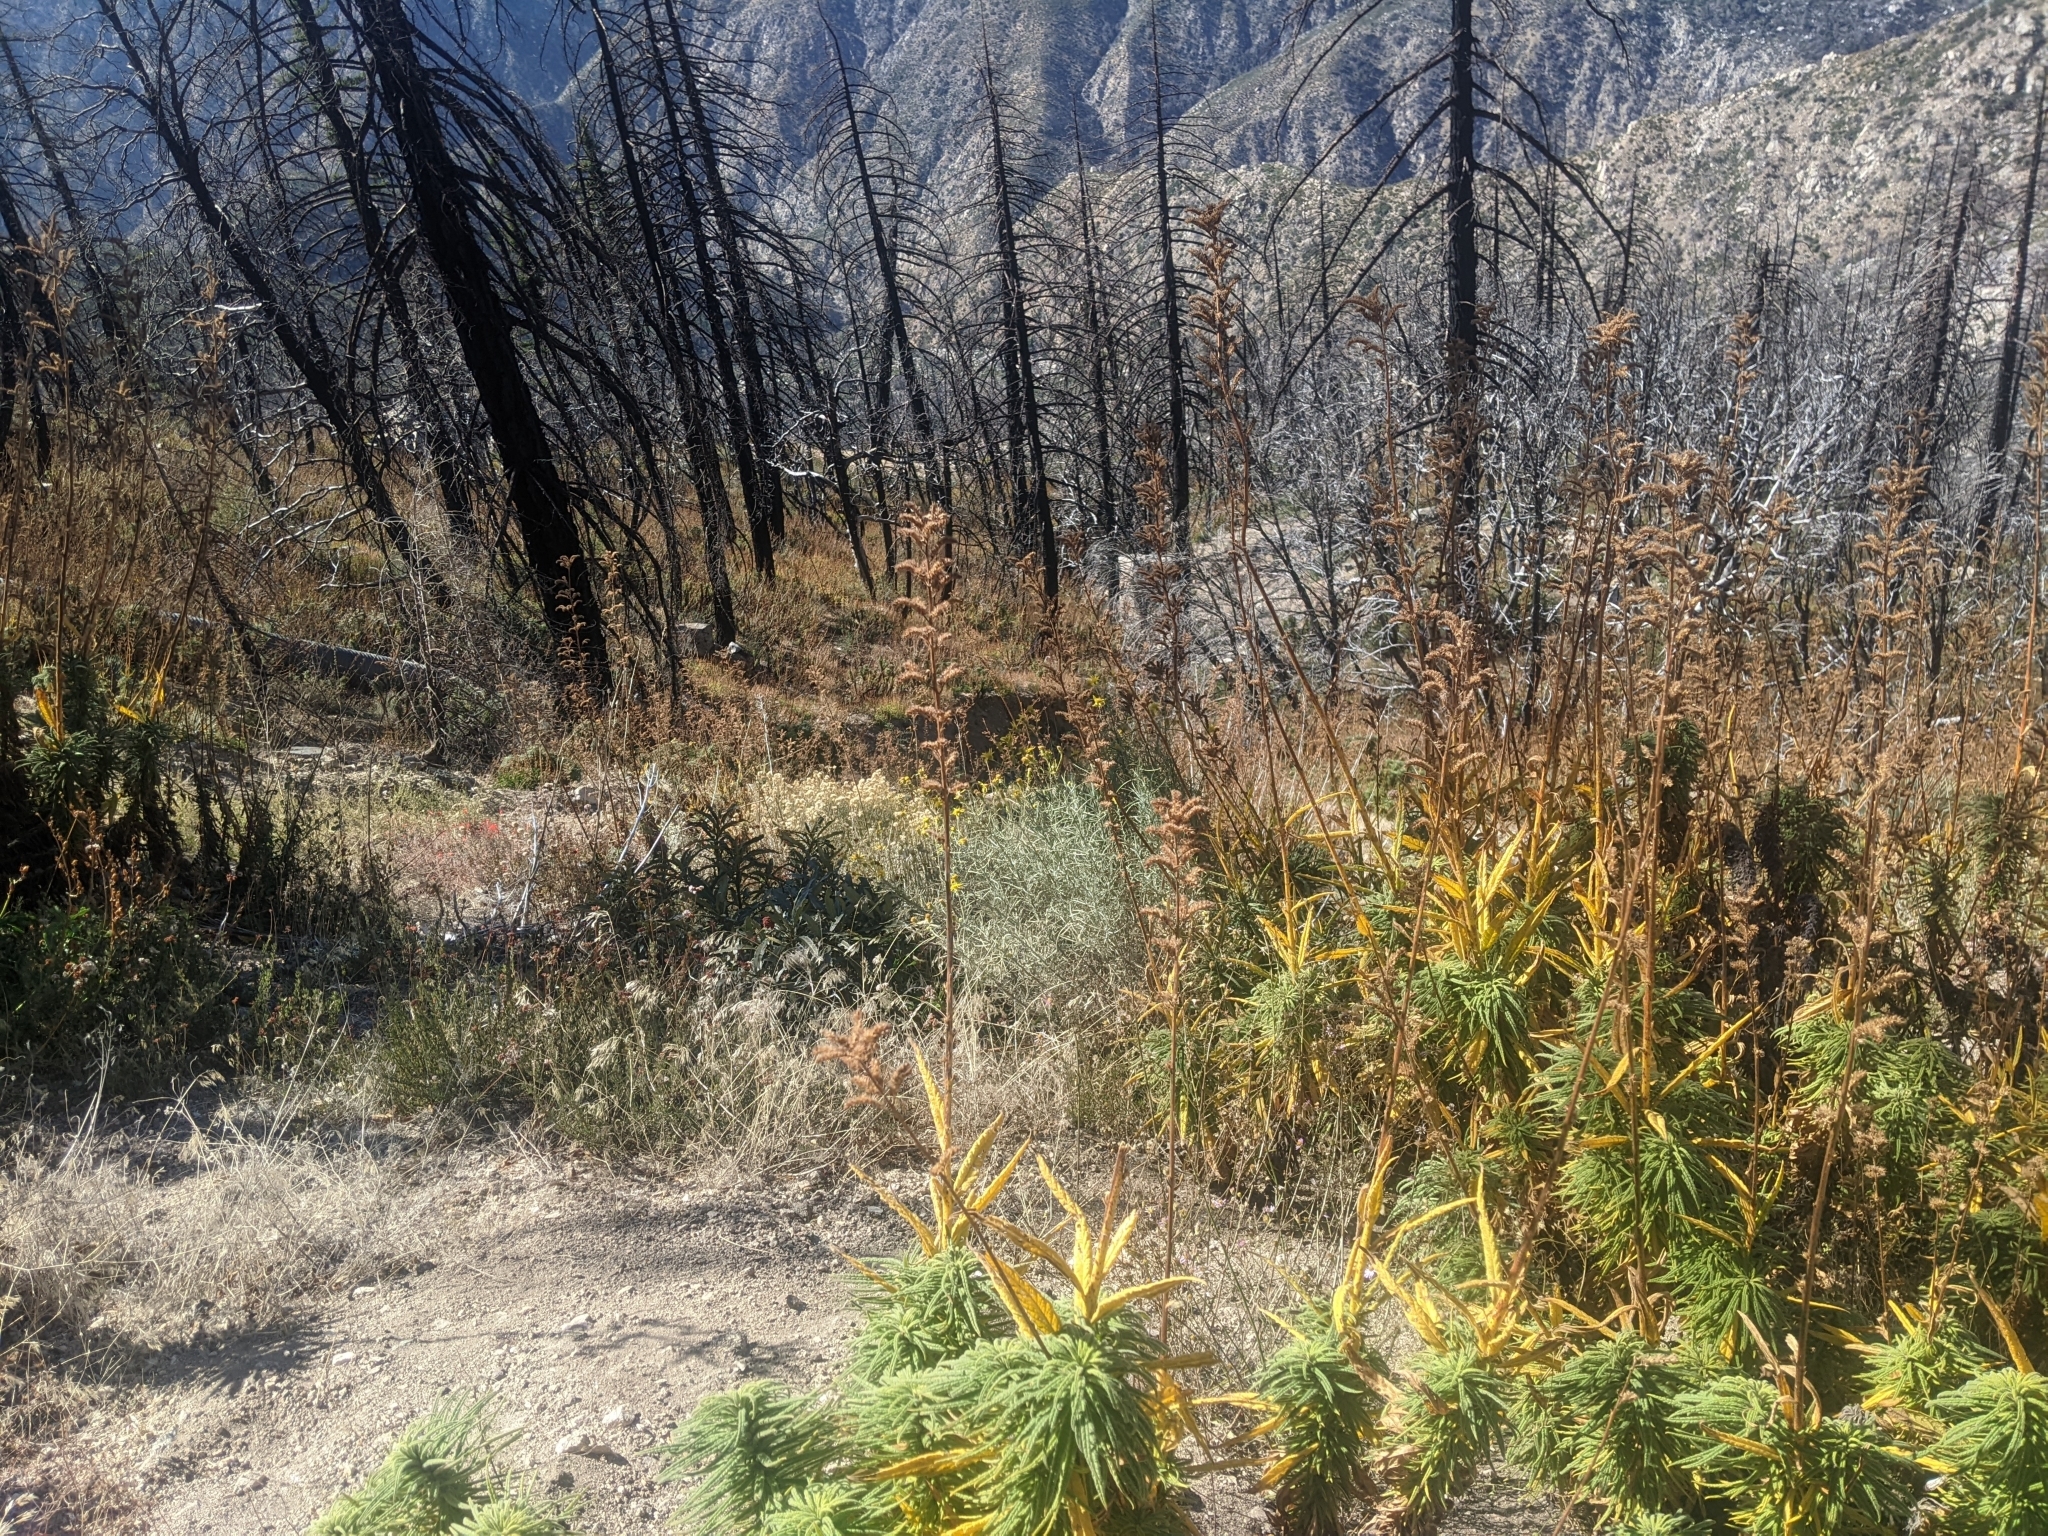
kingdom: Plantae
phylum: Tracheophyta
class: Magnoliopsida
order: Boraginales
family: Namaceae
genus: Turricula
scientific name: Turricula parryi
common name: Poodle-dog-bush
